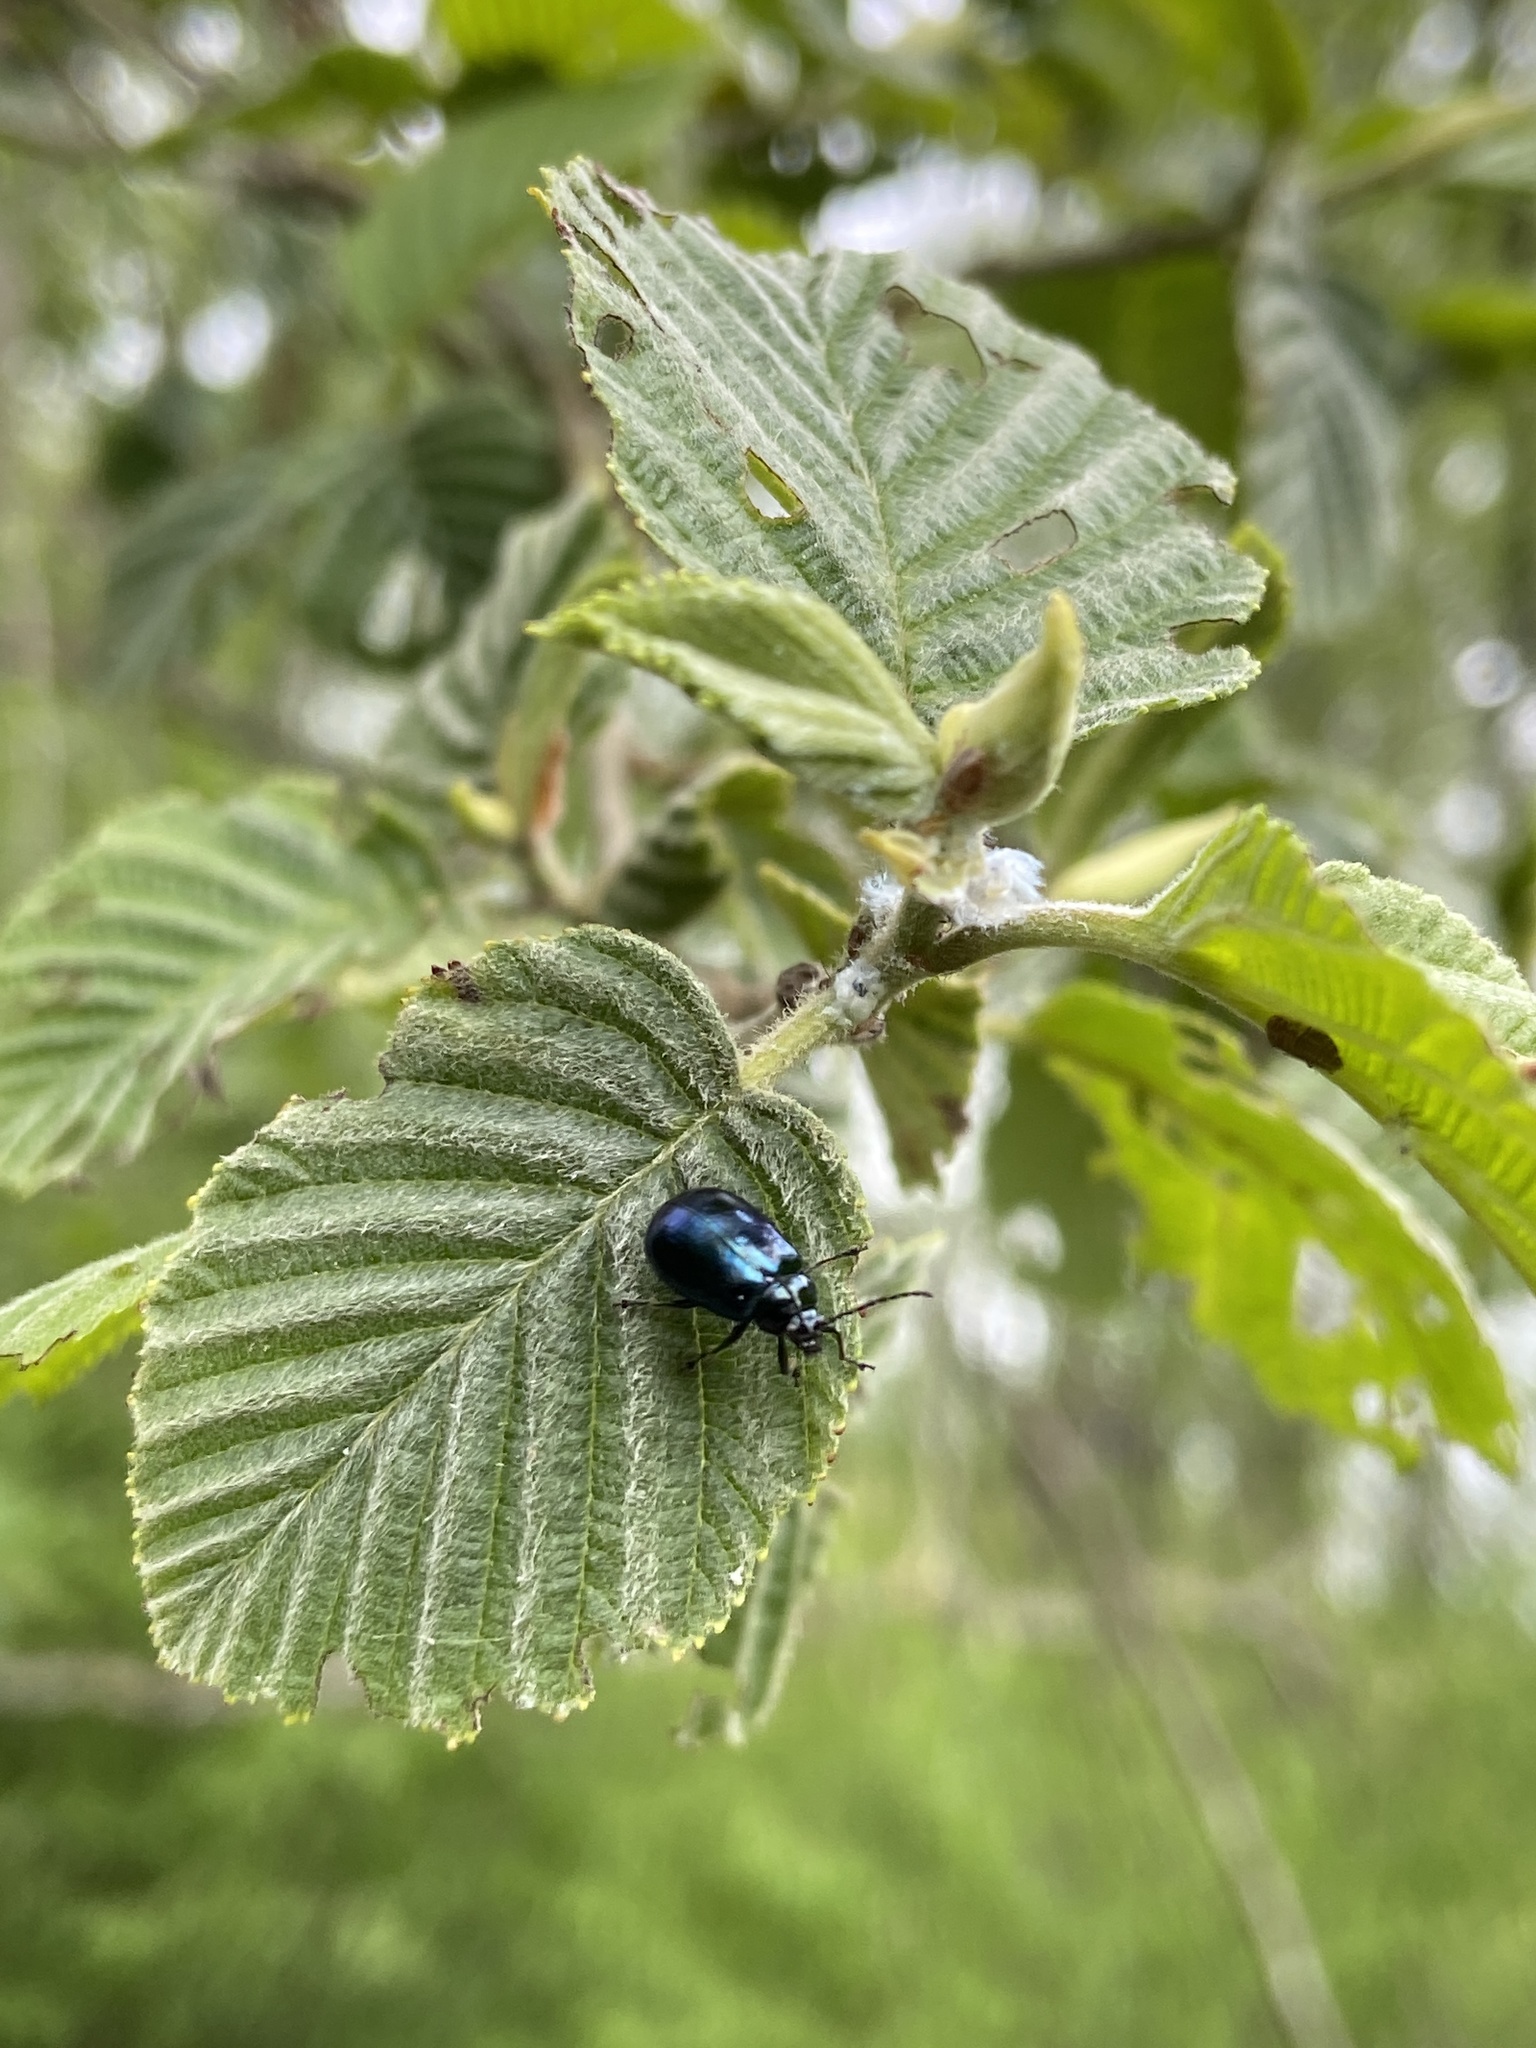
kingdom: Animalia
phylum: Arthropoda
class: Insecta
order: Coleoptera
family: Chrysomelidae
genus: Agelastica
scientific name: Agelastica alni
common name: Alder leaf beetle
